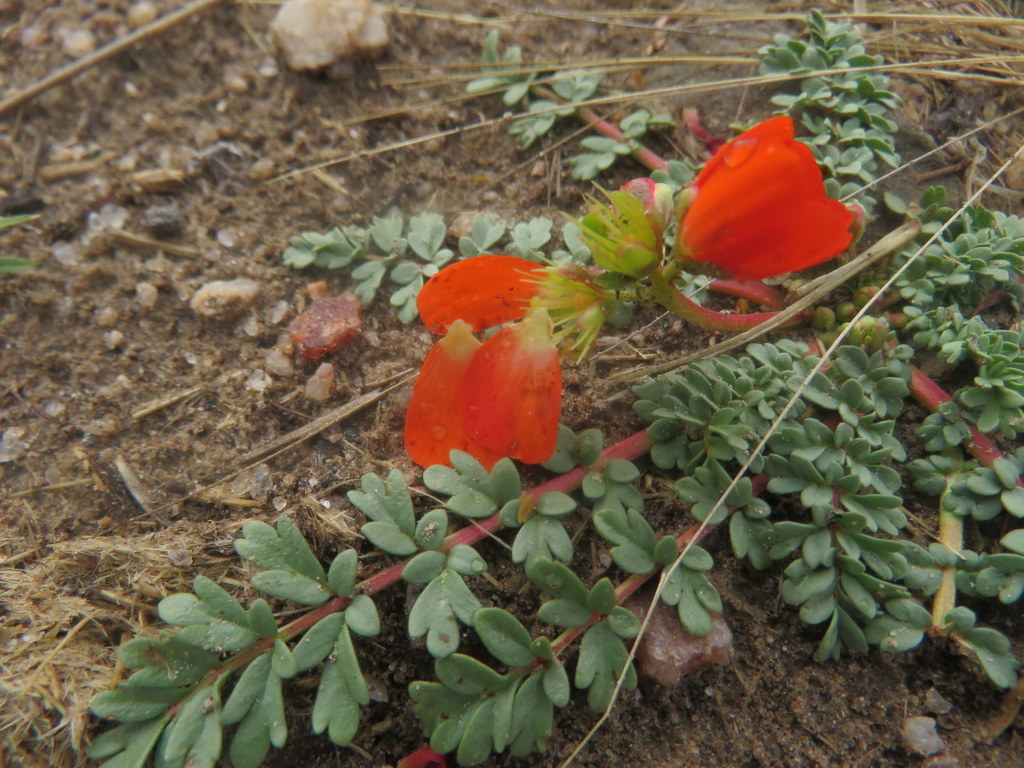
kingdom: Plantae
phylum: Tracheophyta
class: Magnoliopsida
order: Geraniales
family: Hypseocharitaceae
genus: Hypseocharis
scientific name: Hypseocharis pimpinellifolia
